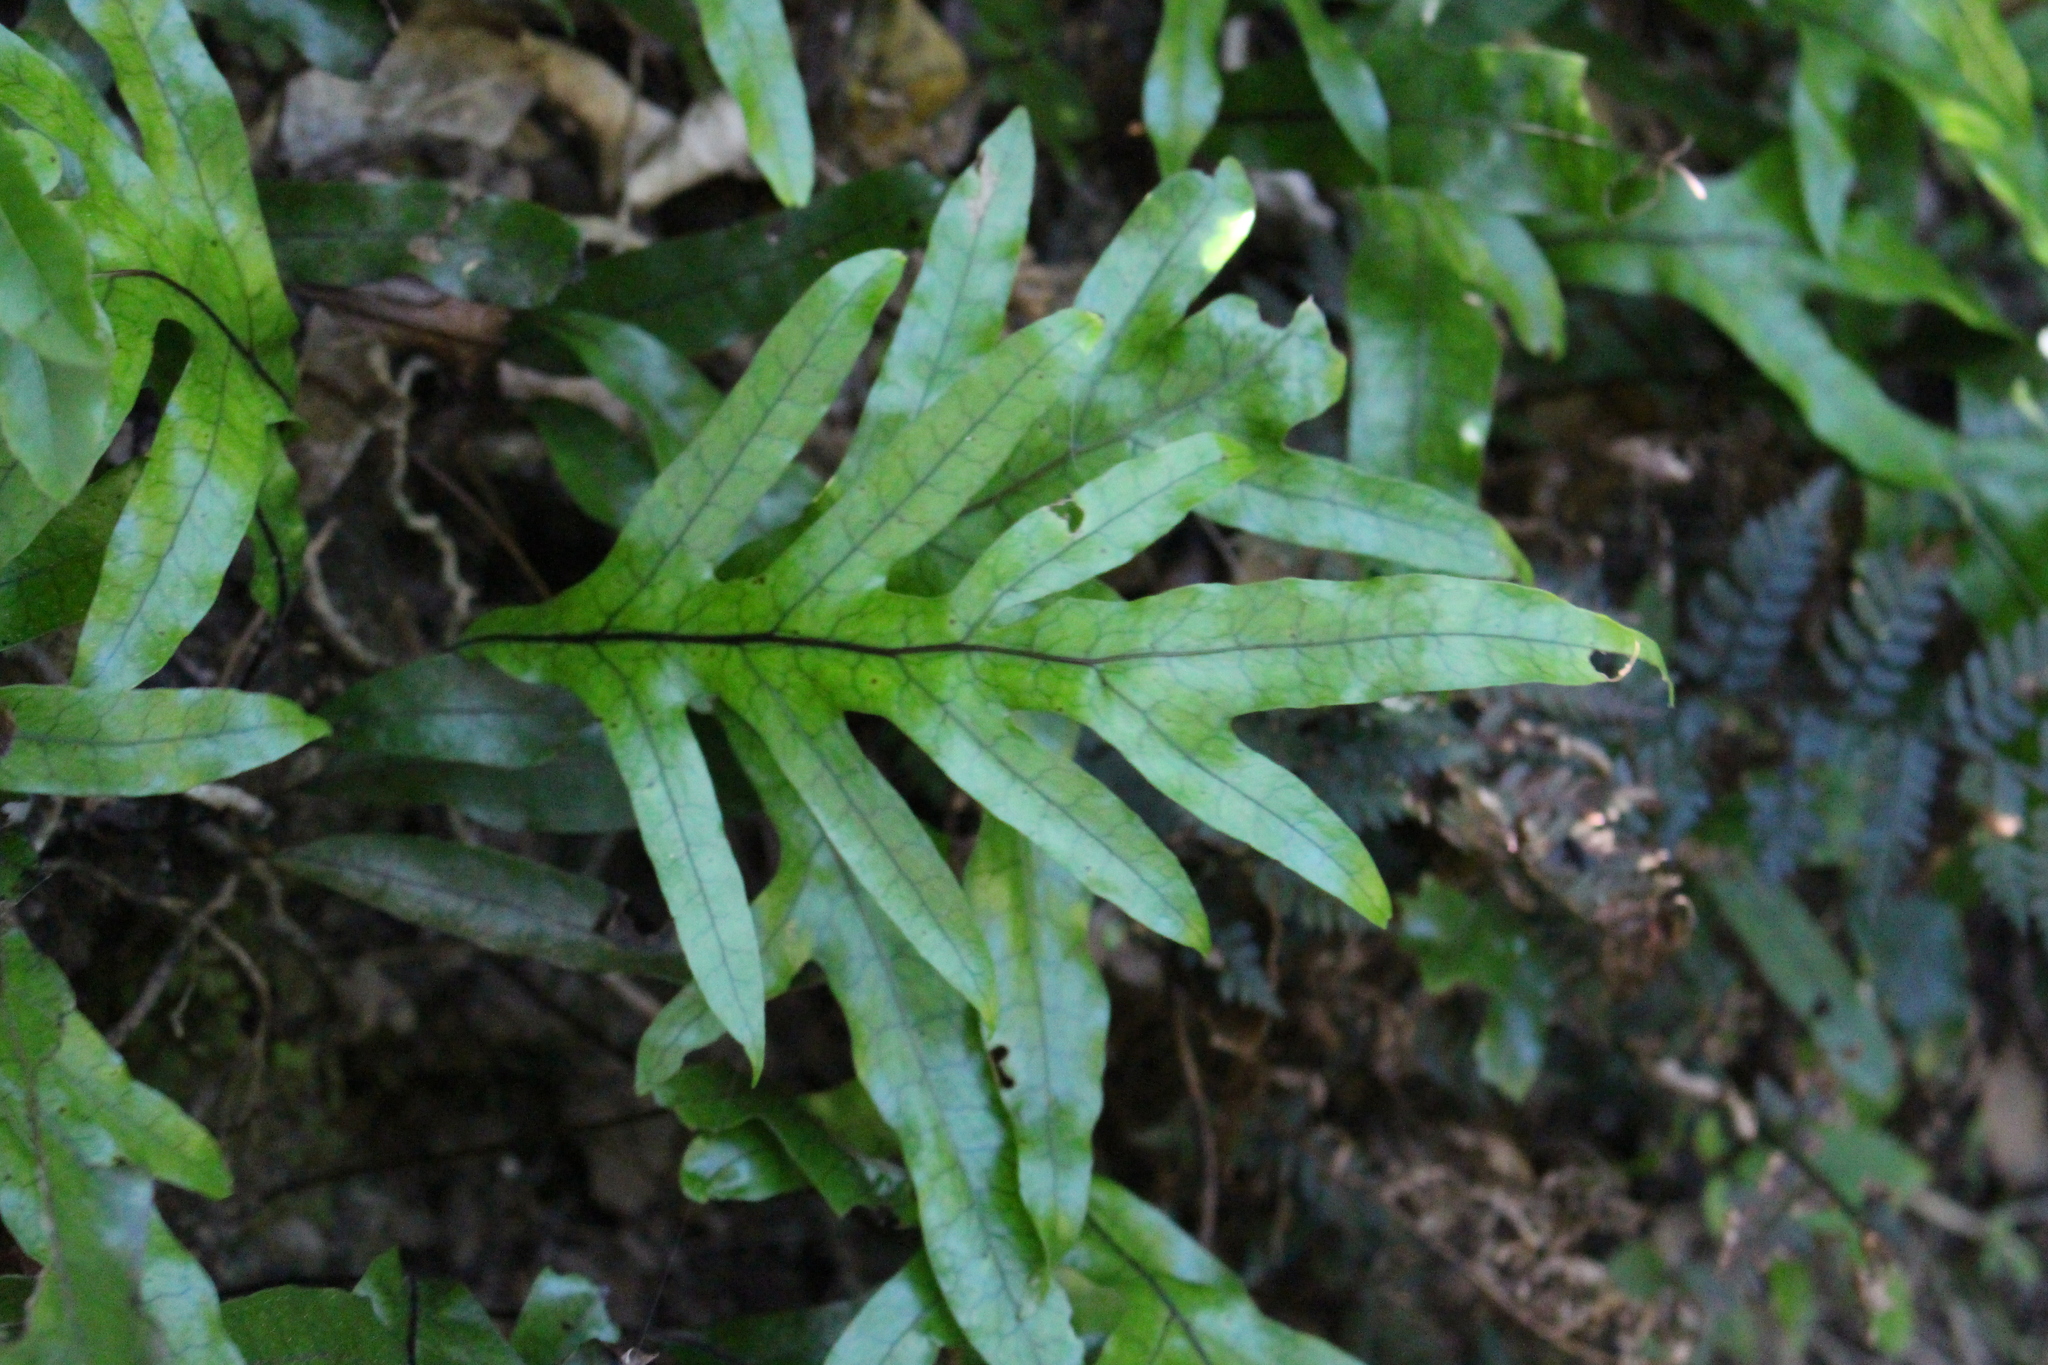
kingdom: Plantae
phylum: Tracheophyta
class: Polypodiopsida
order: Polypodiales
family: Polypodiaceae
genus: Lecanopteris
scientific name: Lecanopteris pustulata
